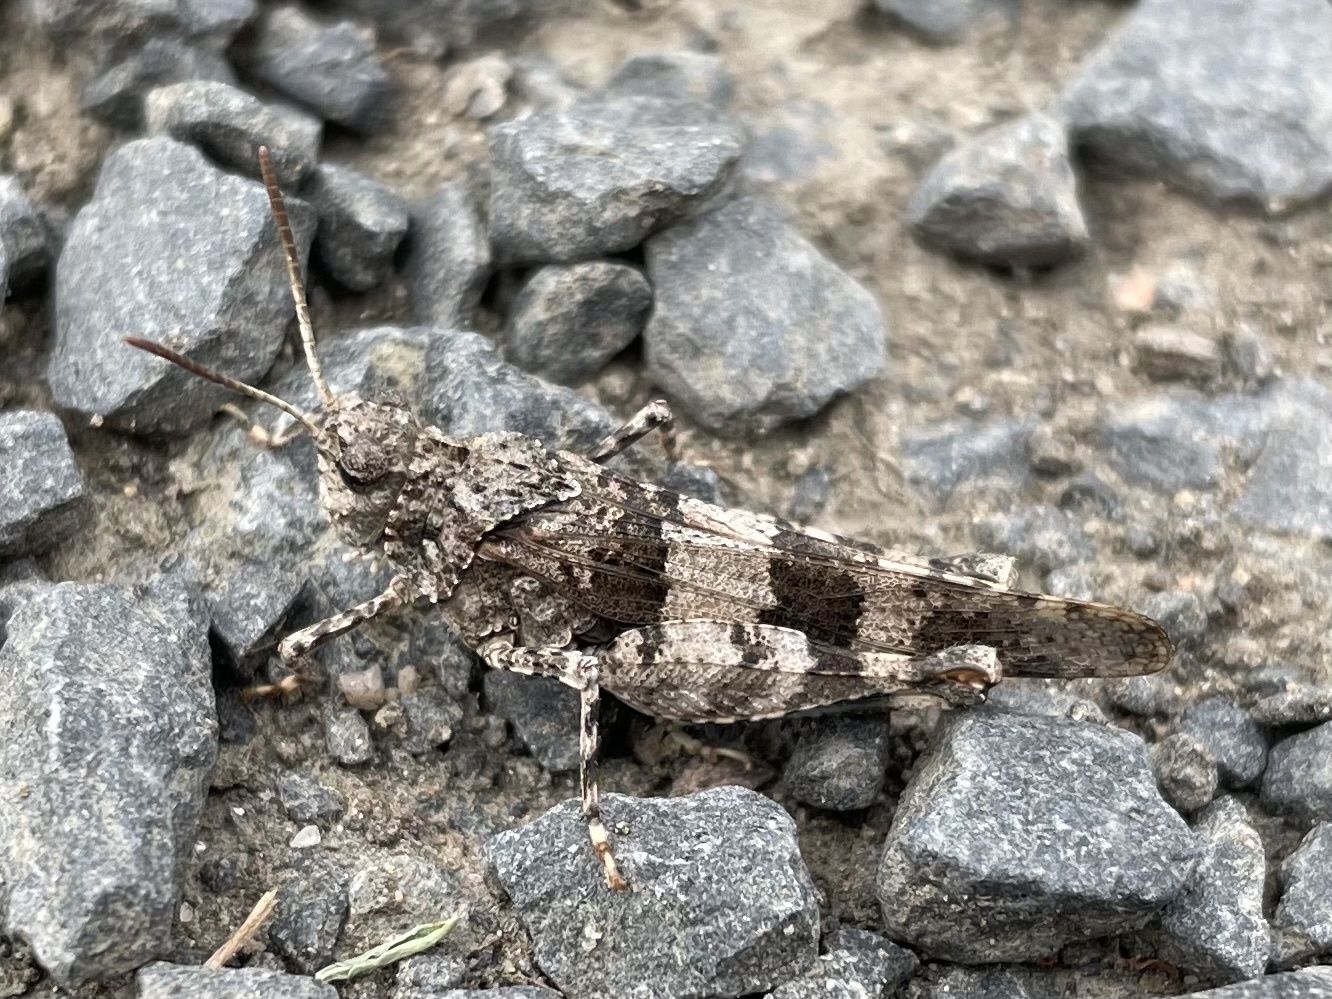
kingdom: Animalia
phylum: Arthropoda
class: Insecta
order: Orthoptera
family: Acrididae
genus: Oedipoda
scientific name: Oedipoda caerulescens
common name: Blue-winged grasshopper
